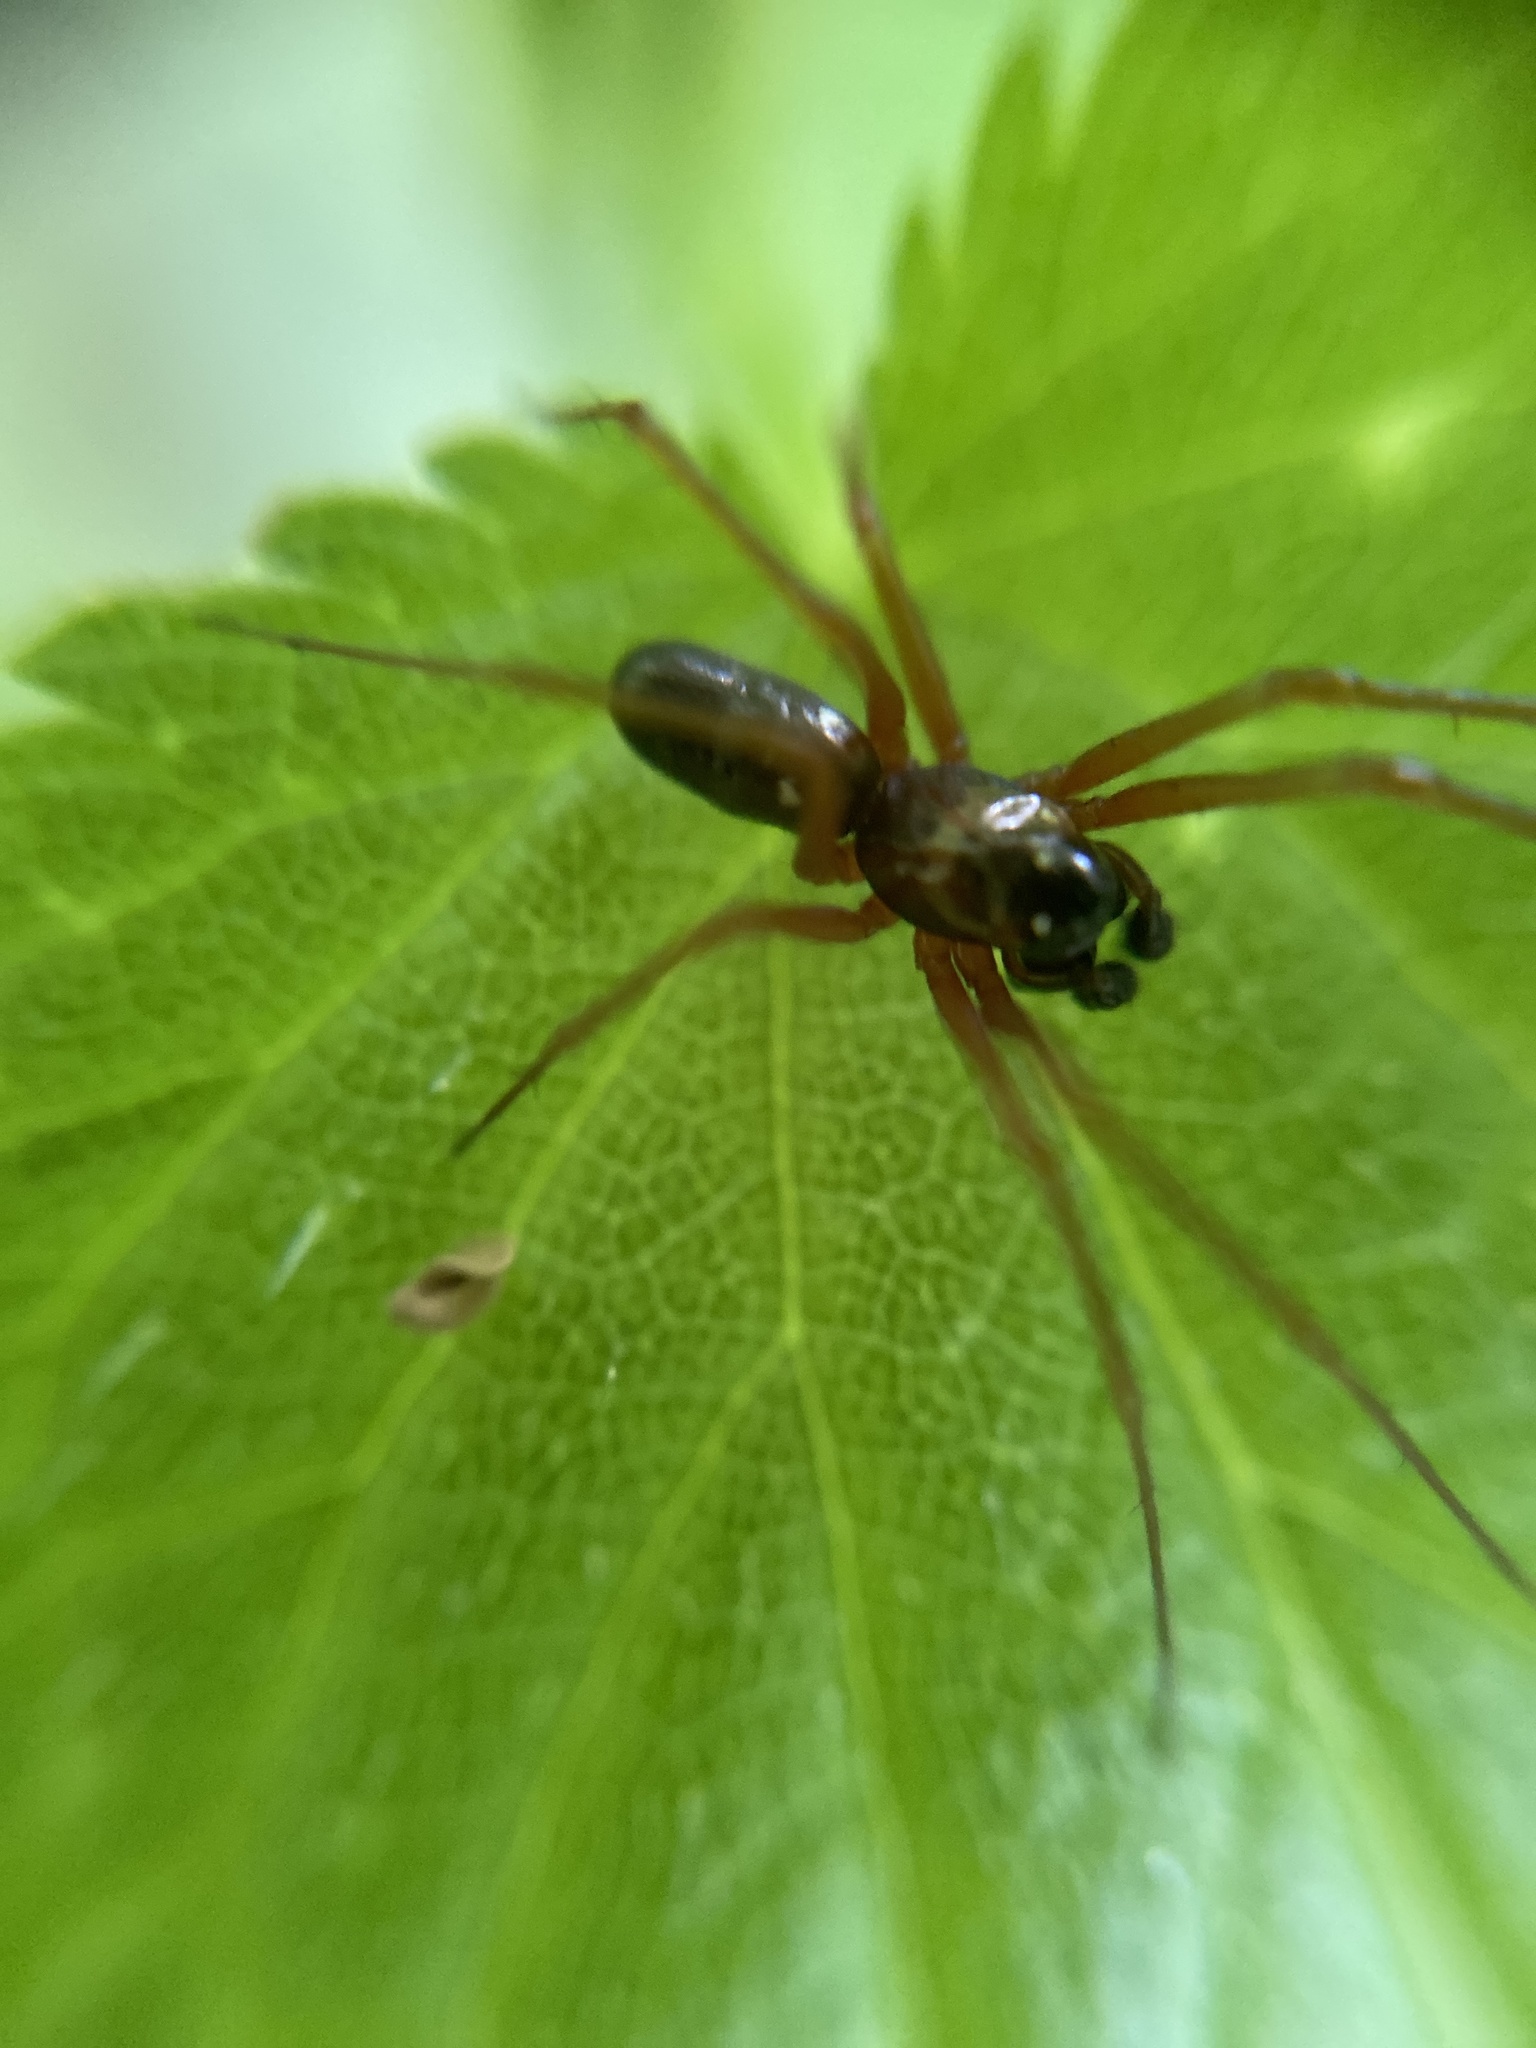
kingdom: Animalia
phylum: Arthropoda
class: Arachnida
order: Araneae
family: Linyphiidae
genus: Neriene
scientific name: Neriene clathrata
